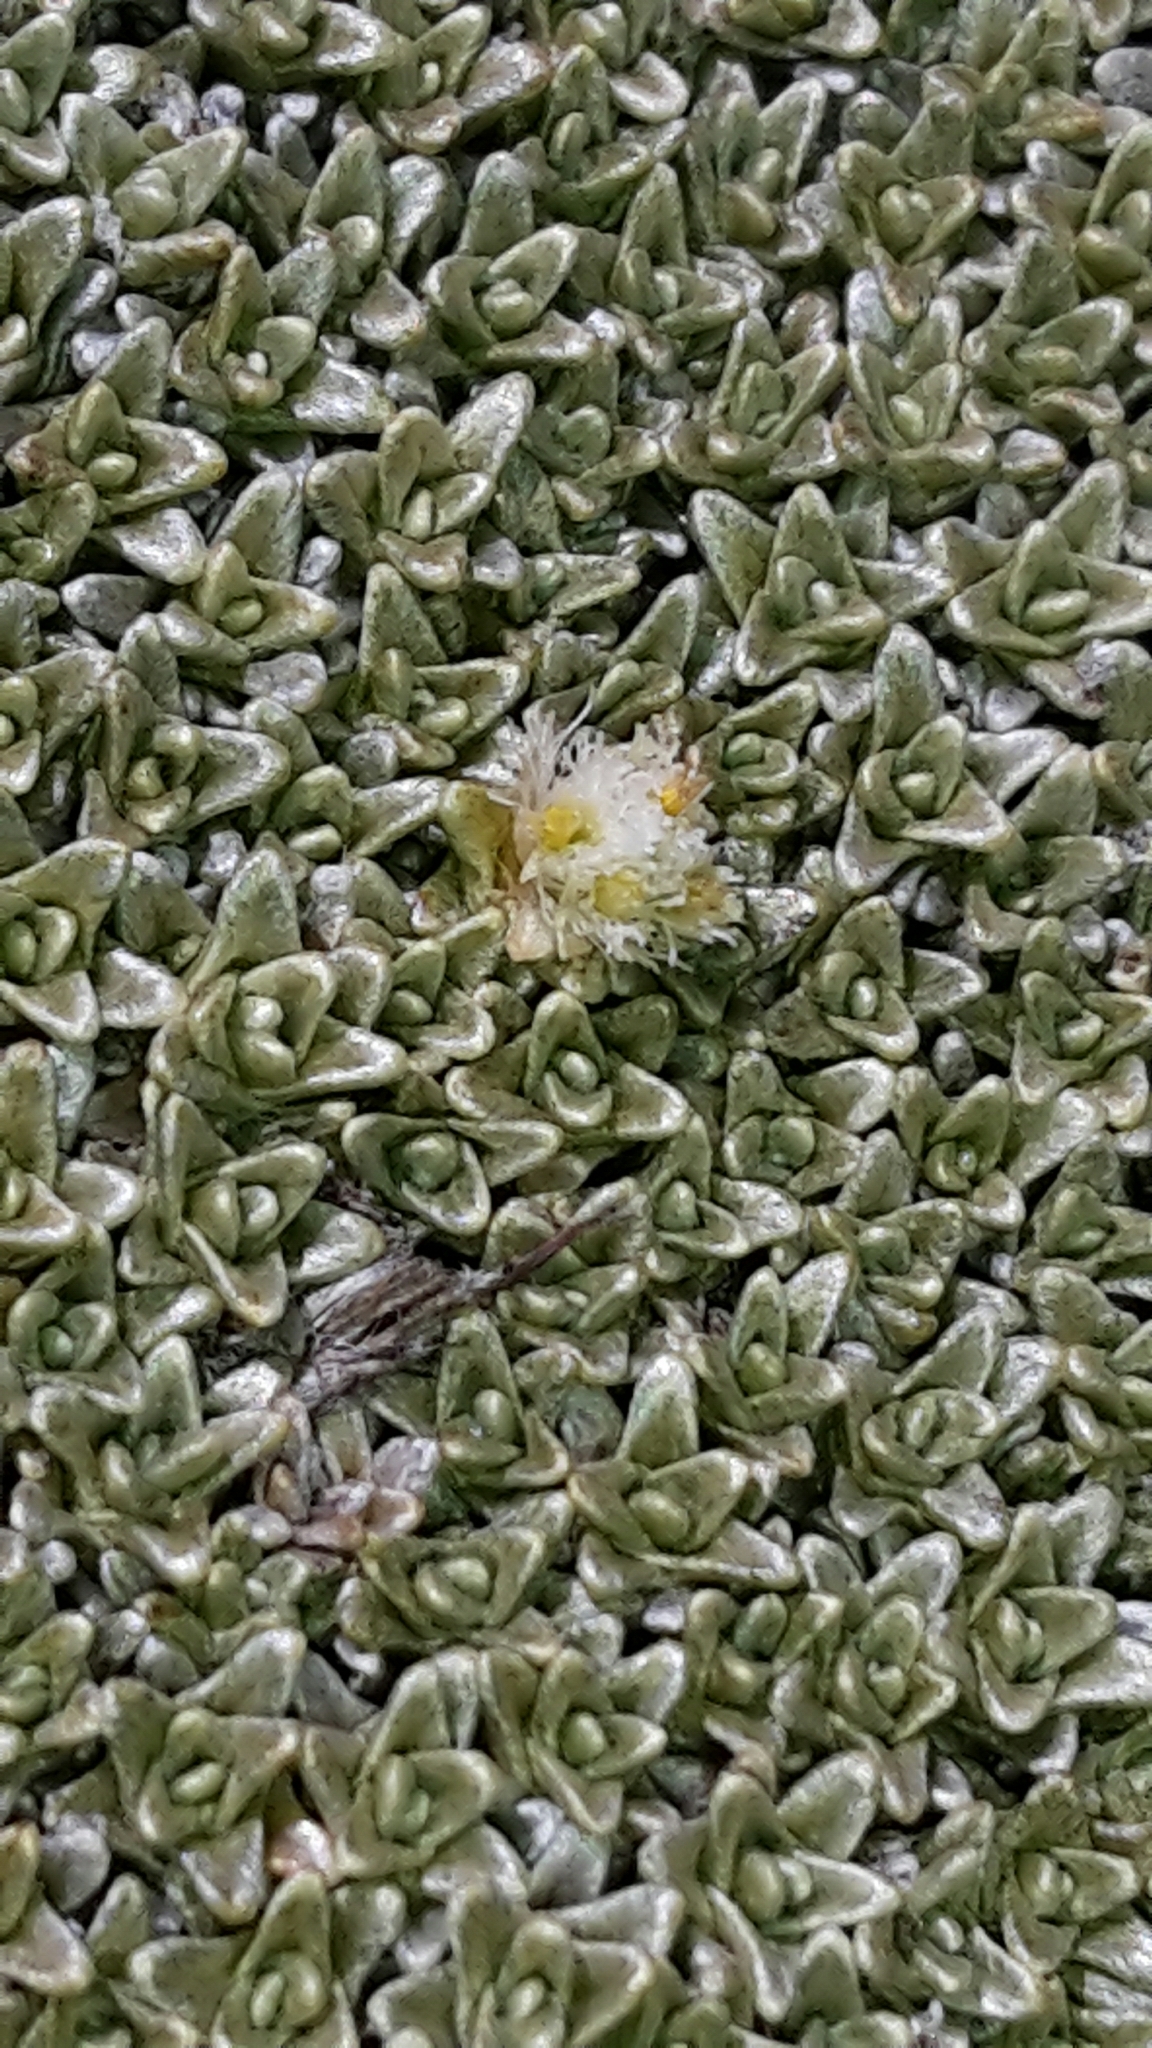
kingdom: Plantae
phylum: Tracheophyta
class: Magnoliopsida
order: Asterales
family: Asteraceae
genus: Raoulia
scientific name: Raoulia hectorii
